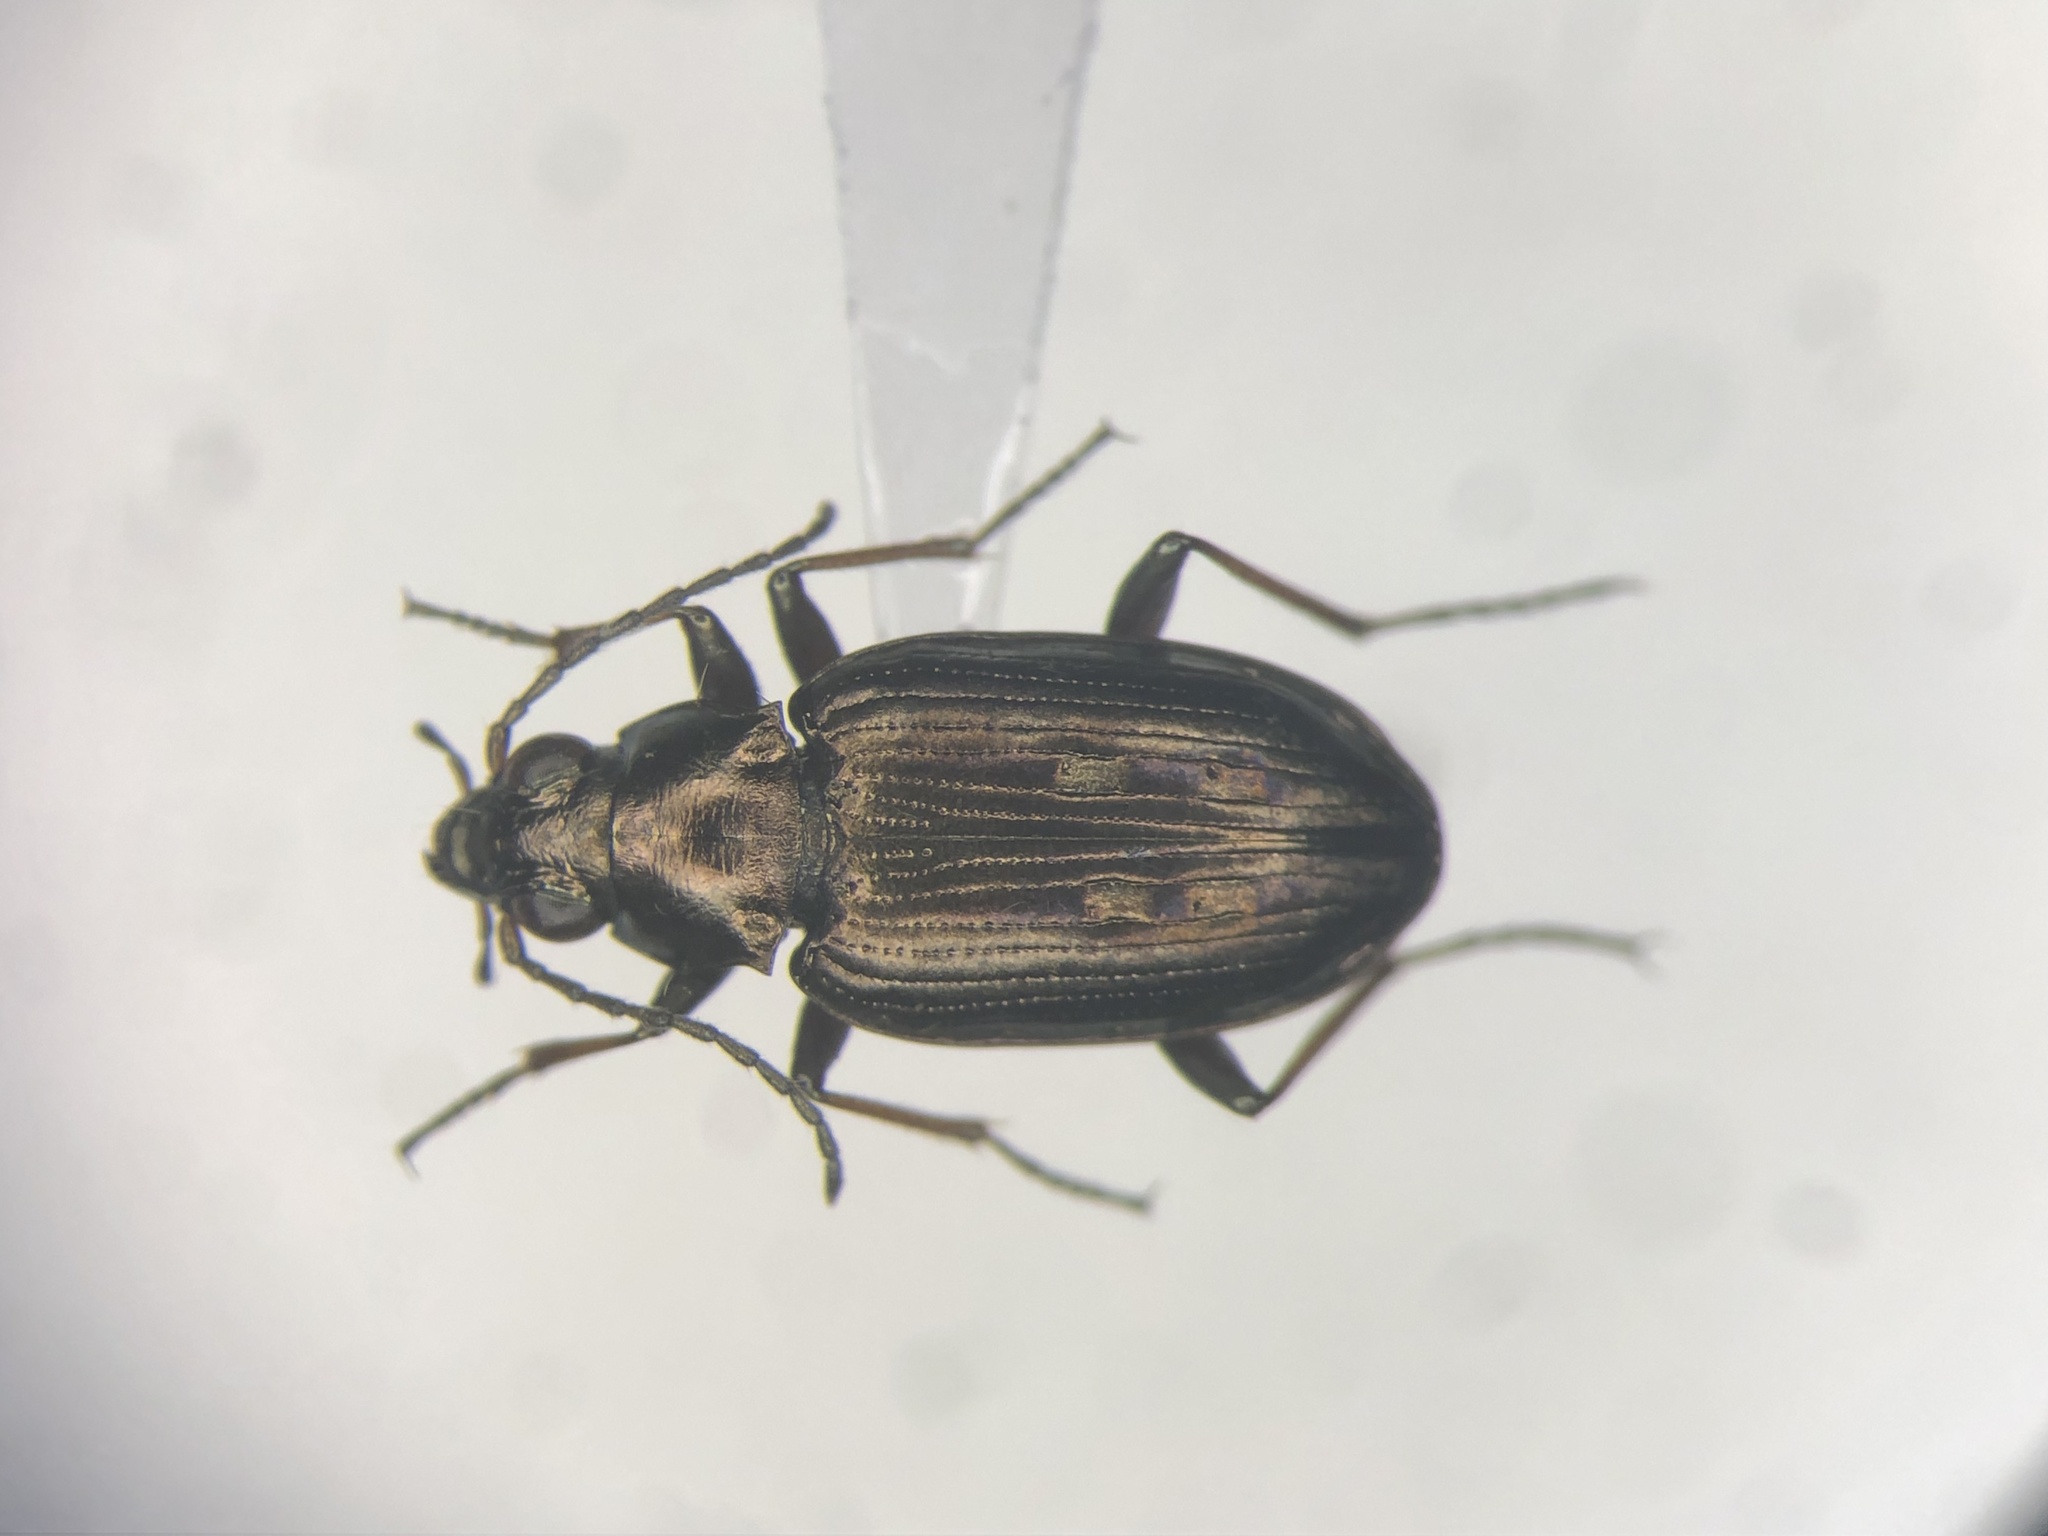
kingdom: Animalia
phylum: Arthropoda
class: Insecta
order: Coleoptera
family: Carabidae
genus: Bembidion
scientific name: Bembidion punctatostriatum
